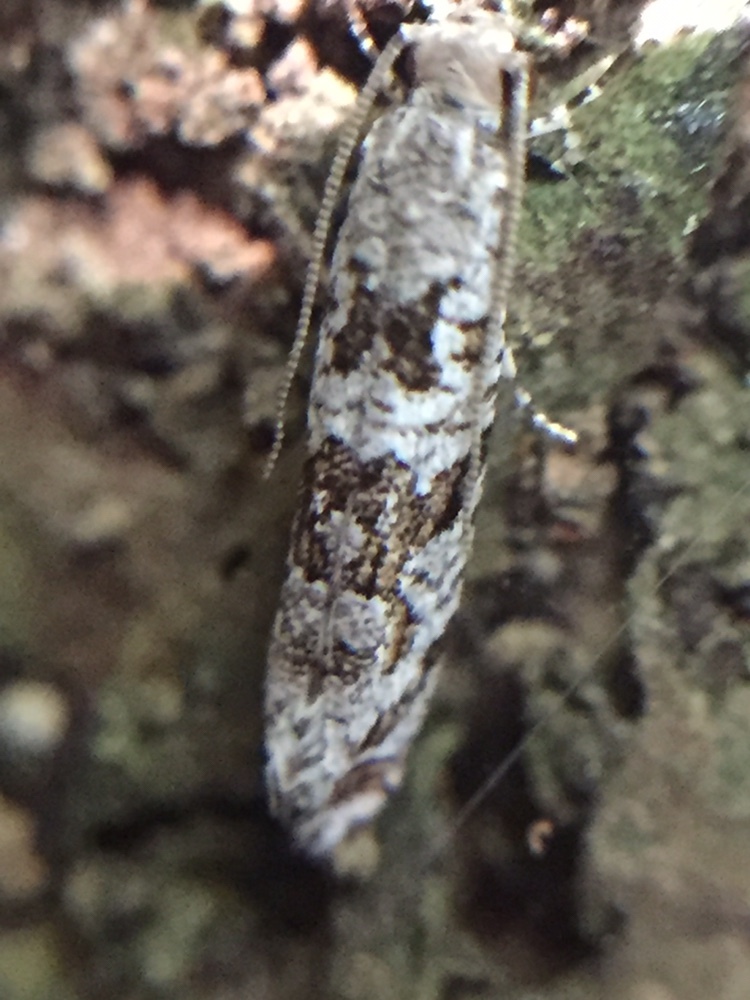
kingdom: Animalia
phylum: Arthropoda
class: Insecta
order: Lepidoptera
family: Tineidae
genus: Archyala
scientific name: Archyala paraglypta
